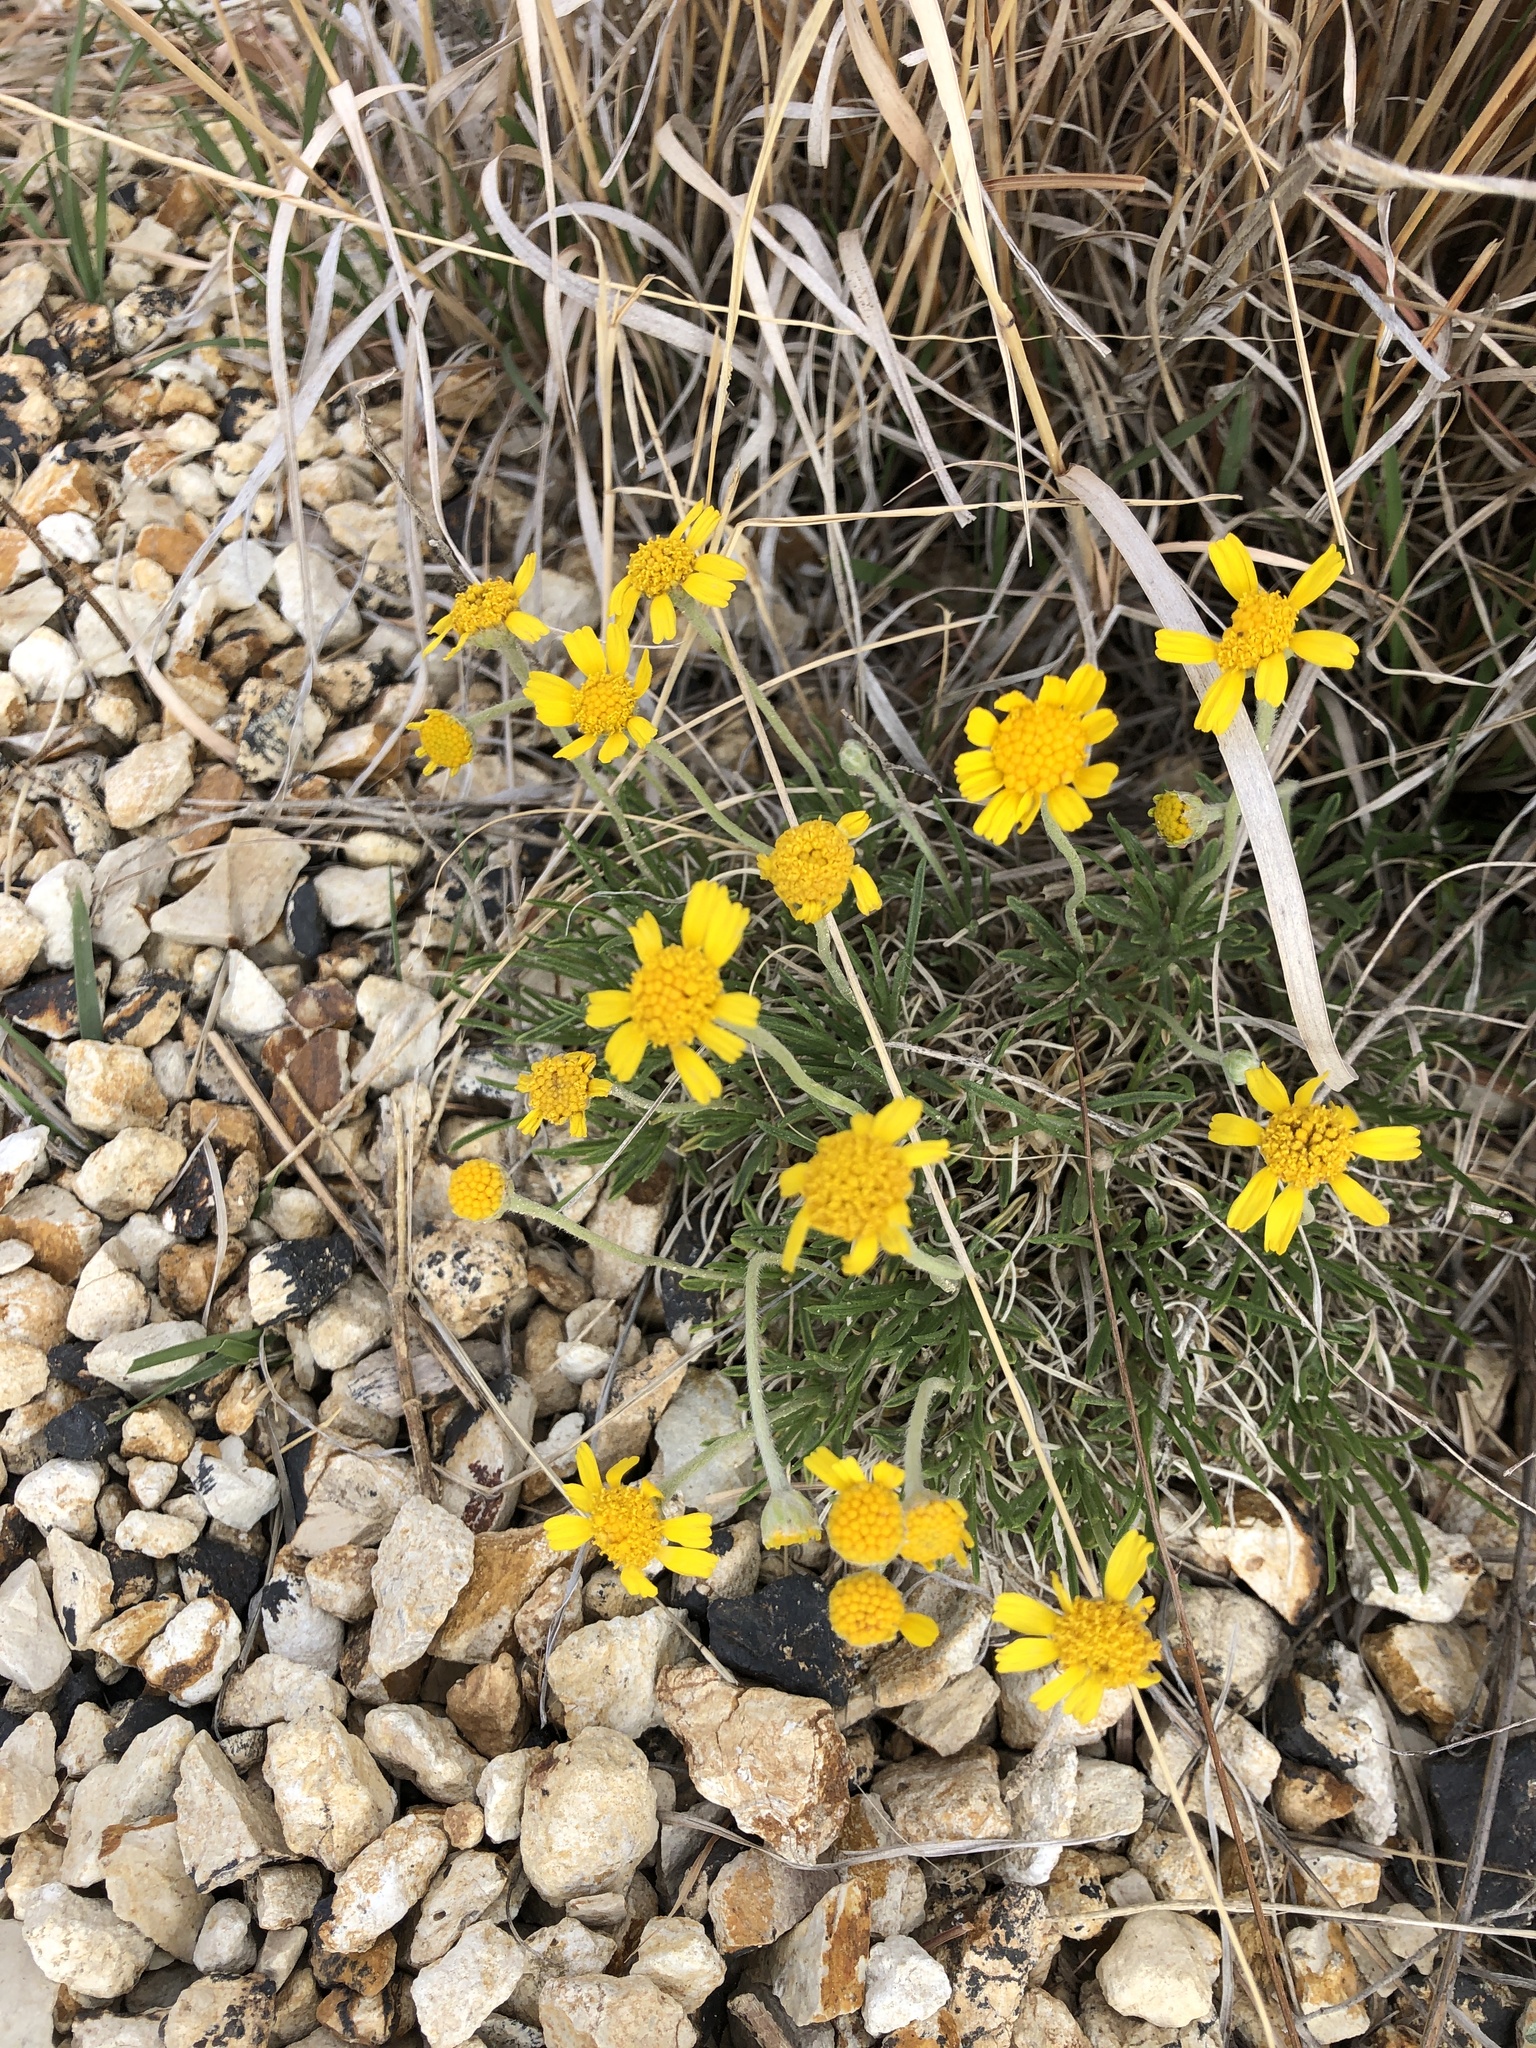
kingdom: Plantae
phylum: Tracheophyta
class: Magnoliopsida
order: Asterales
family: Asteraceae
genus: Tetraneuris
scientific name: Tetraneuris scaposa
